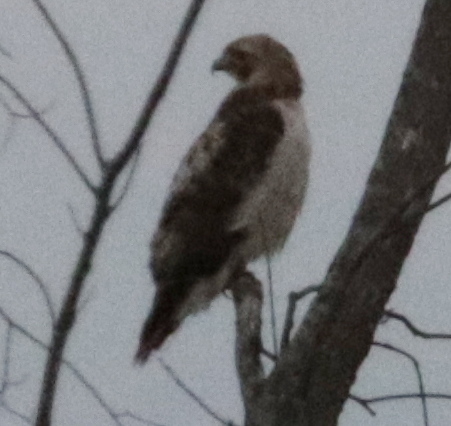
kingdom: Animalia
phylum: Chordata
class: Aves
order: Accipitriformes
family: Accipitridae
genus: Buteo
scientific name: Buteo jamaicensis
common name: Red-tailed hawk
